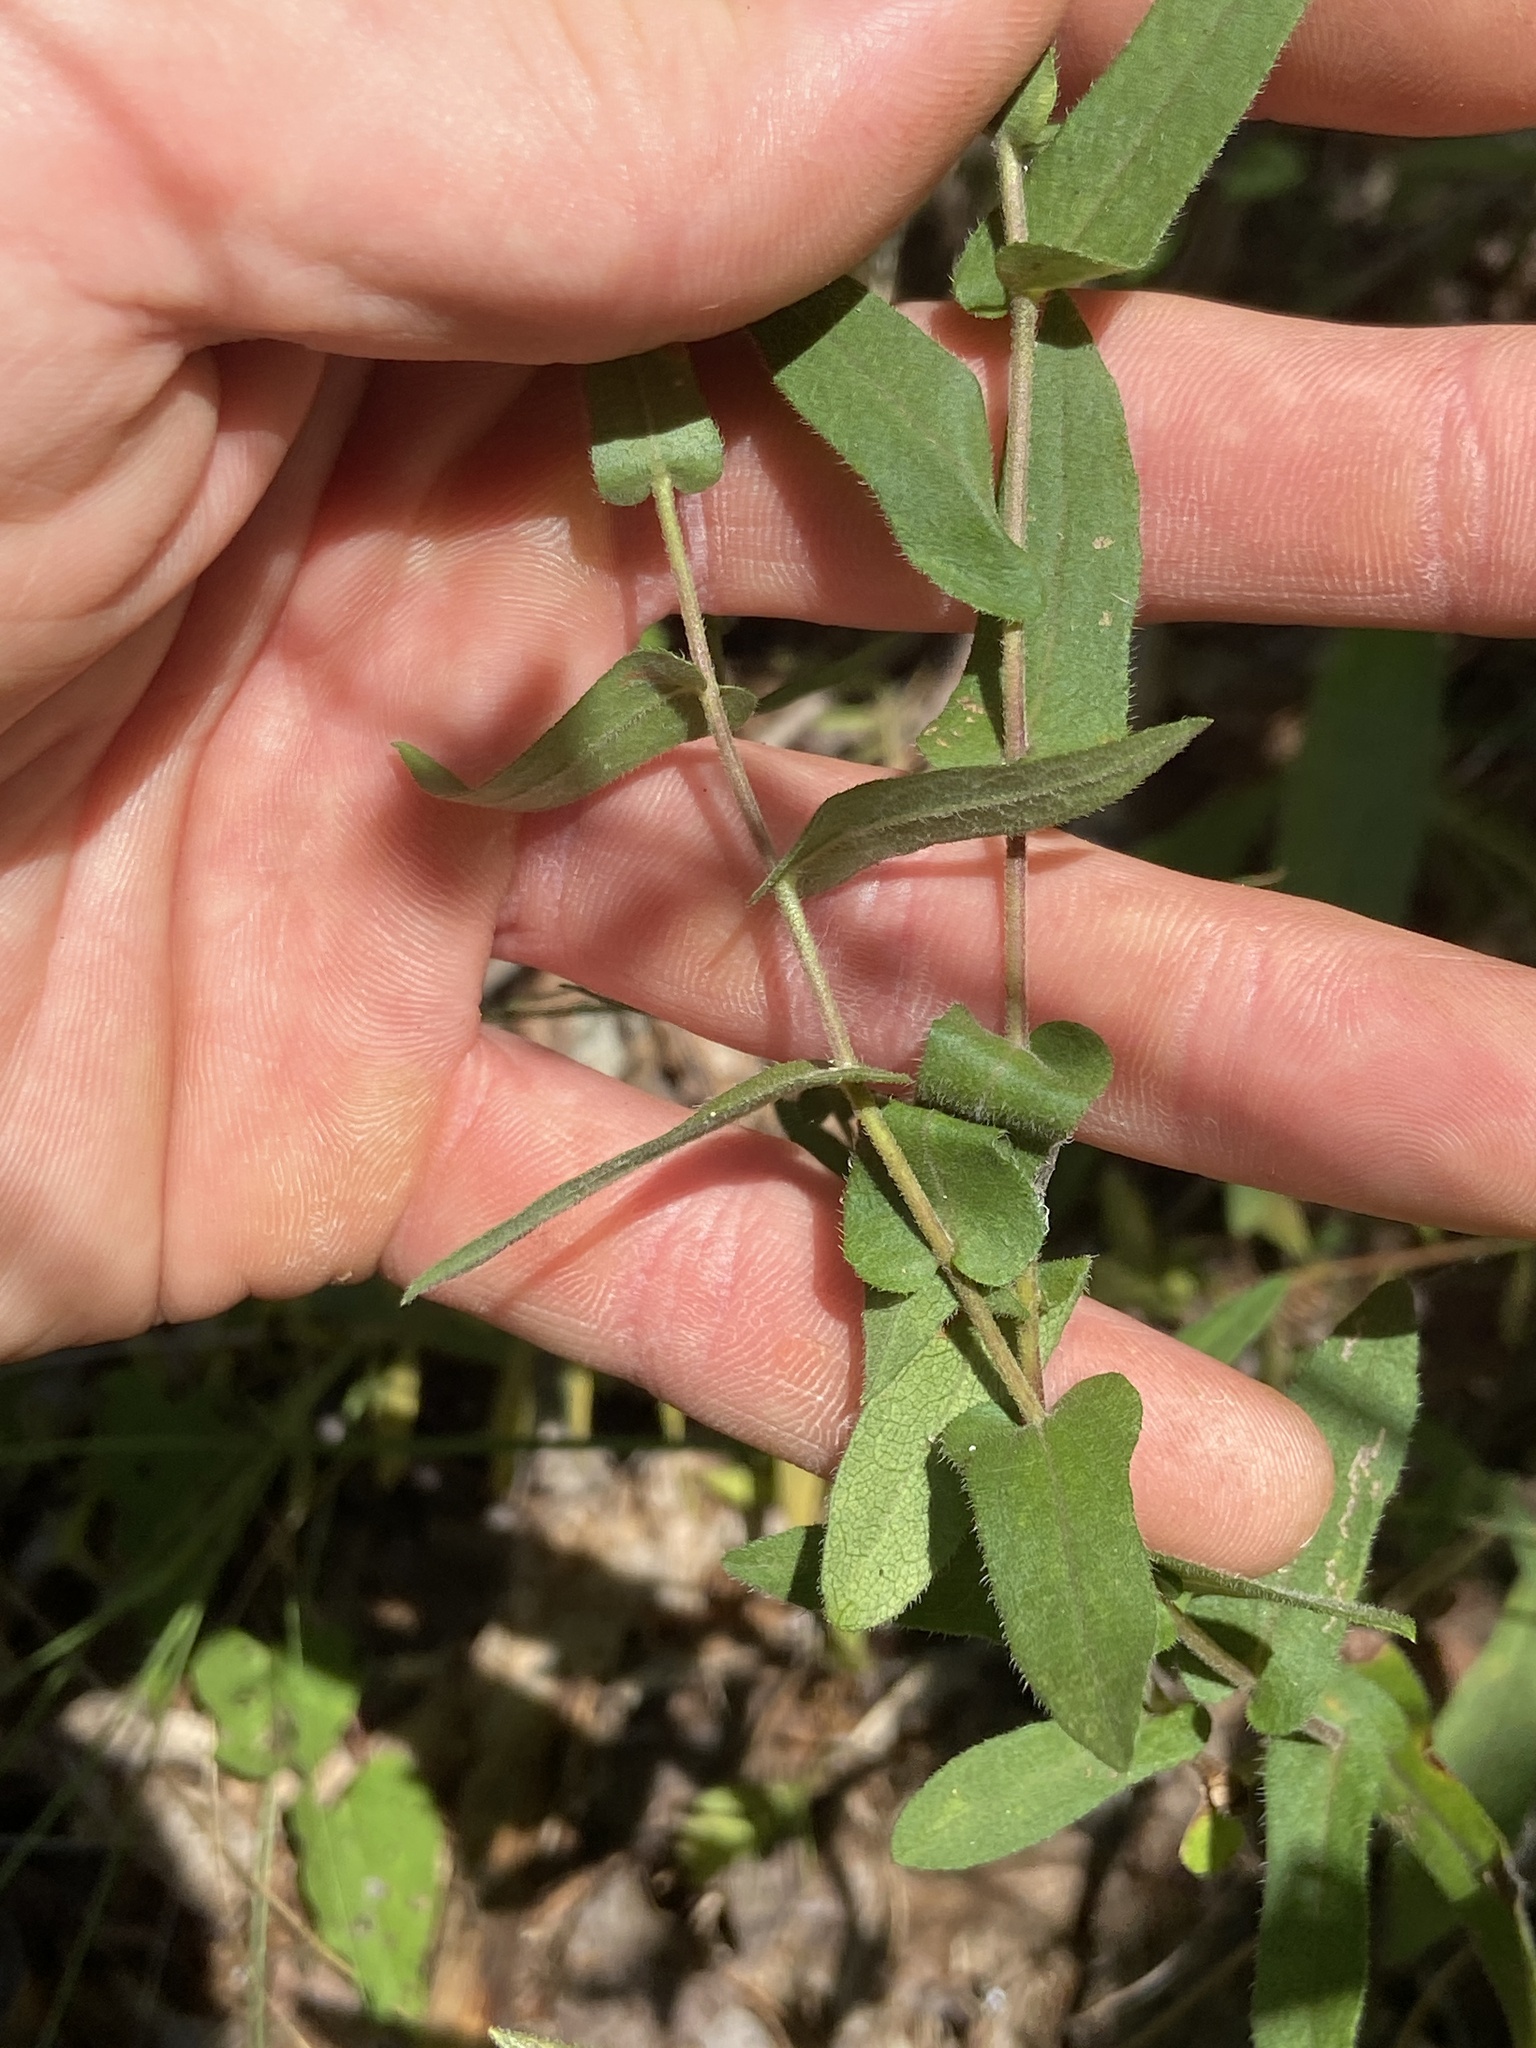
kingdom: Plantae
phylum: Tracheophyta
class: Magnoliopsida
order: Asterales
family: Asteraceae
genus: Symphyotrichum
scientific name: Symphyotrichum patens
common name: Late purple aster
